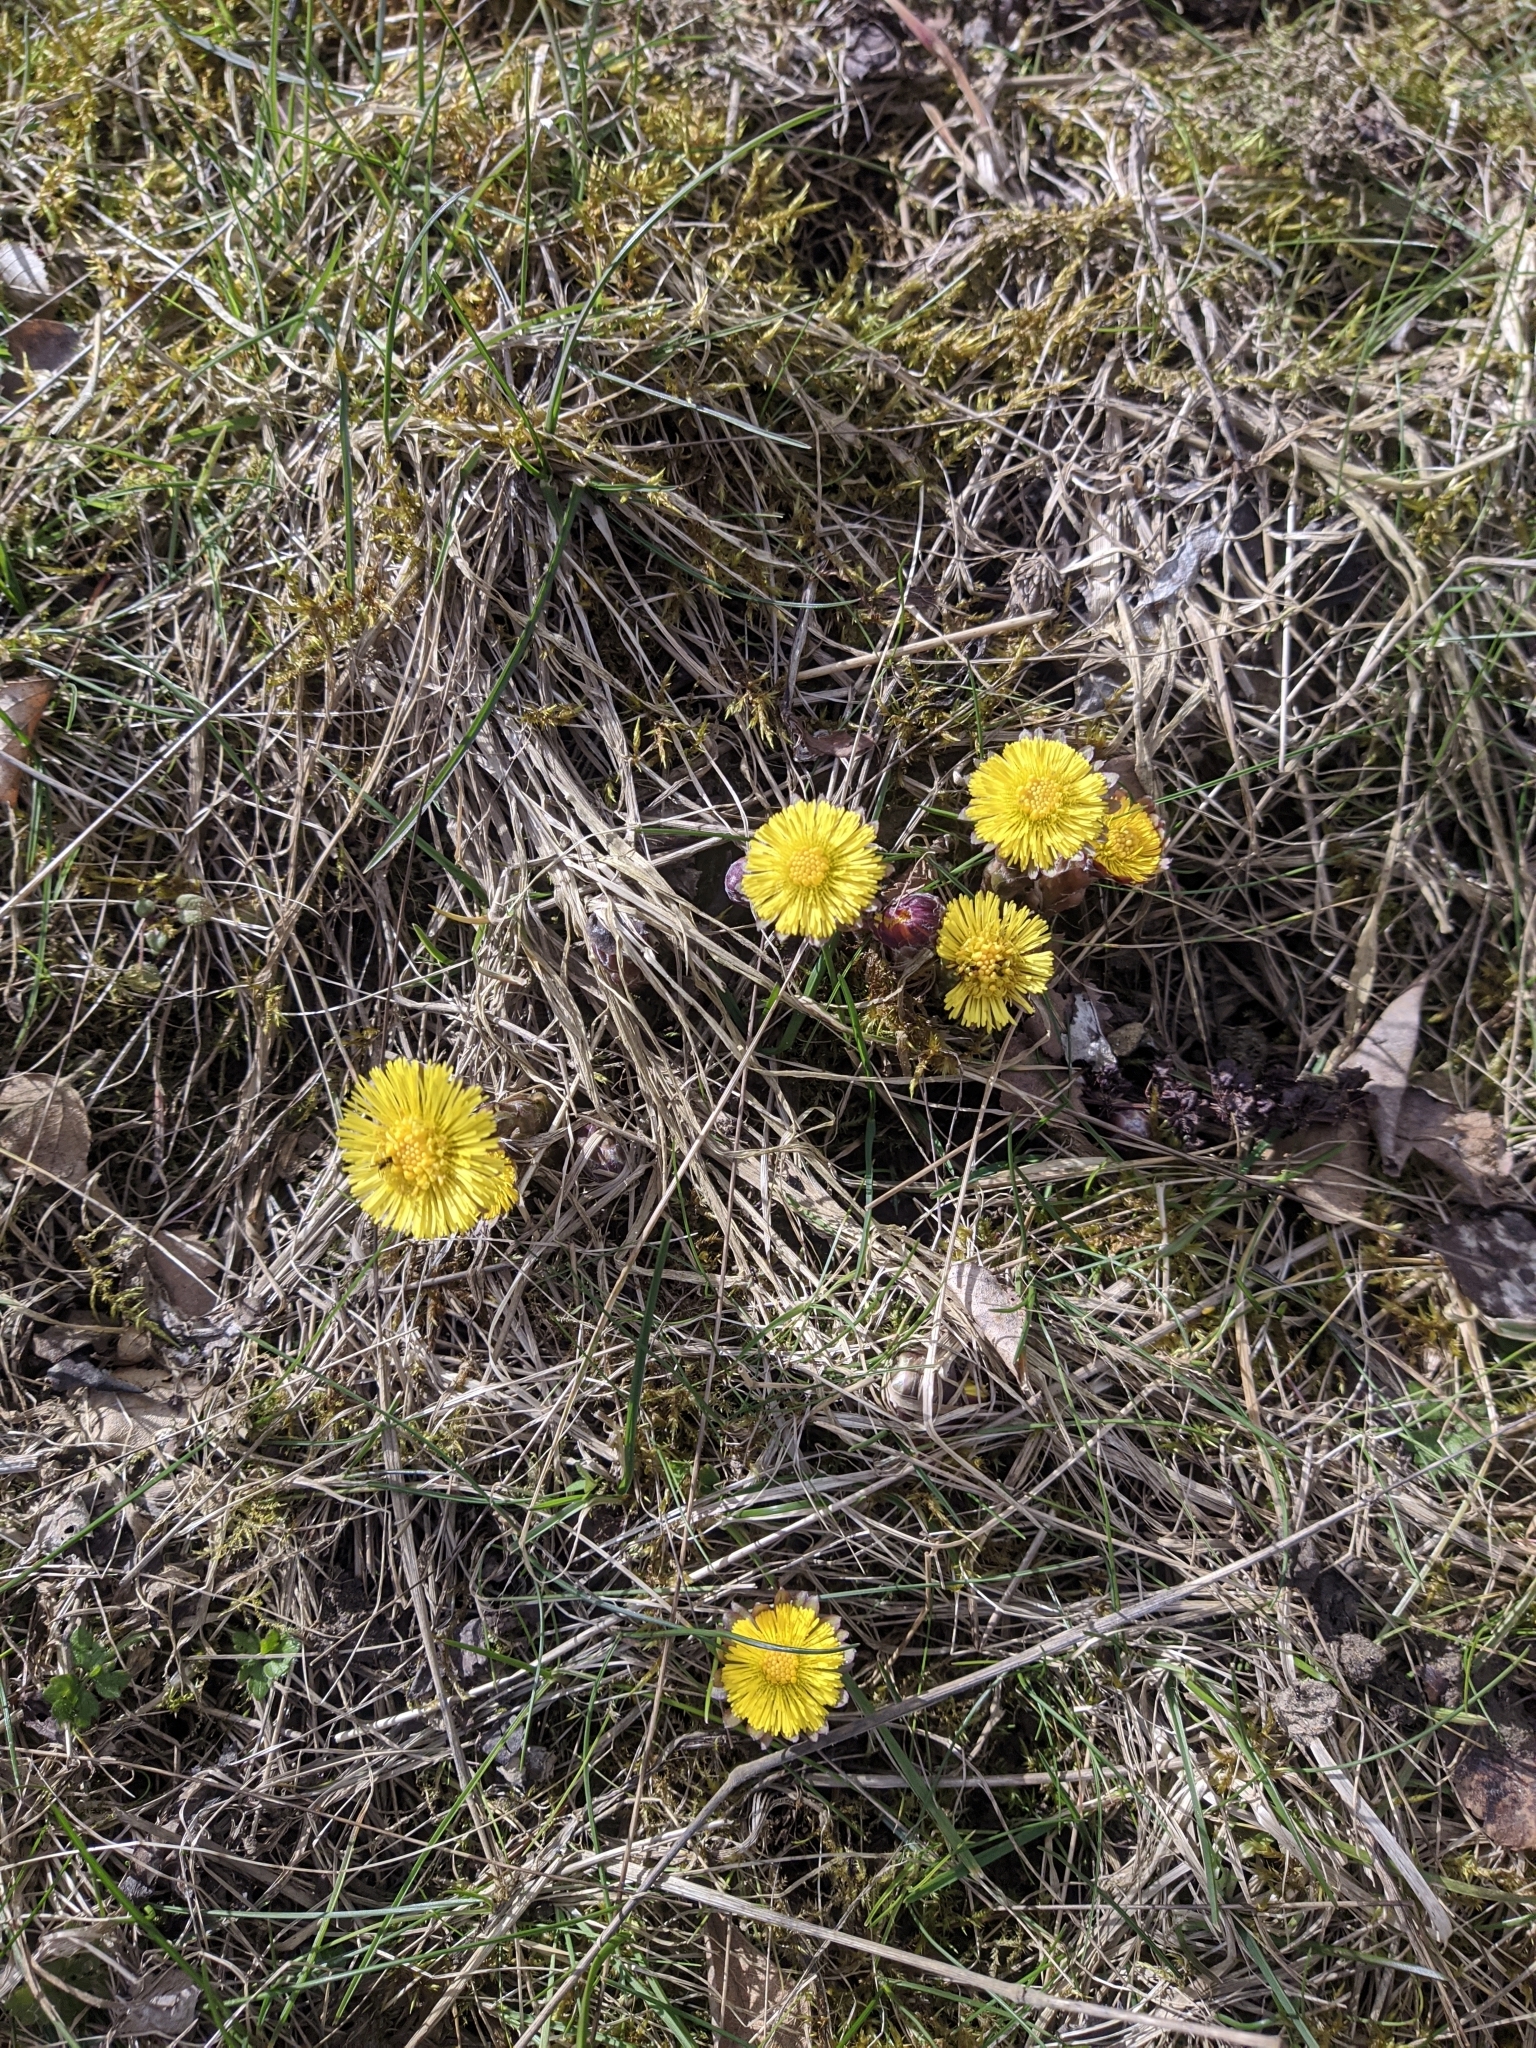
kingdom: Plantae
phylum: Tracheophyta
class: Magnoliopsida
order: Asterales
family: Asteraceae
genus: Tussilago
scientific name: Tussilago farfara
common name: Coltsfoot
